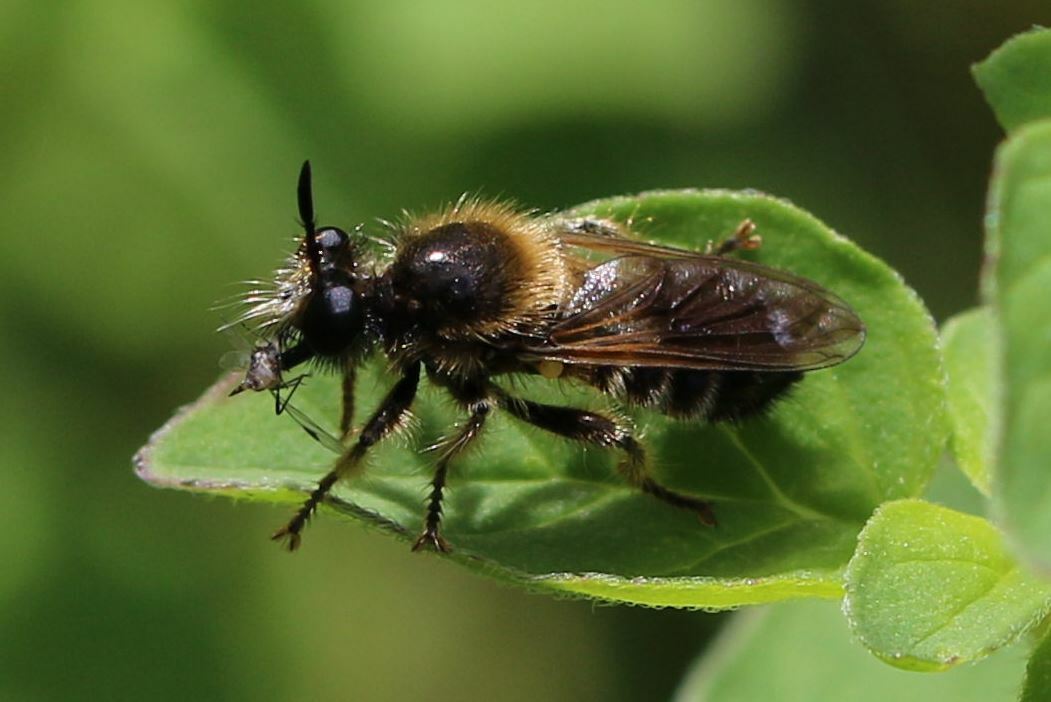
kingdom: Animalia
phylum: Arthropoda
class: Insecta
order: Diptera
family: Asilidae
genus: Lamyra
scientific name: Lamyra fuliginosa
